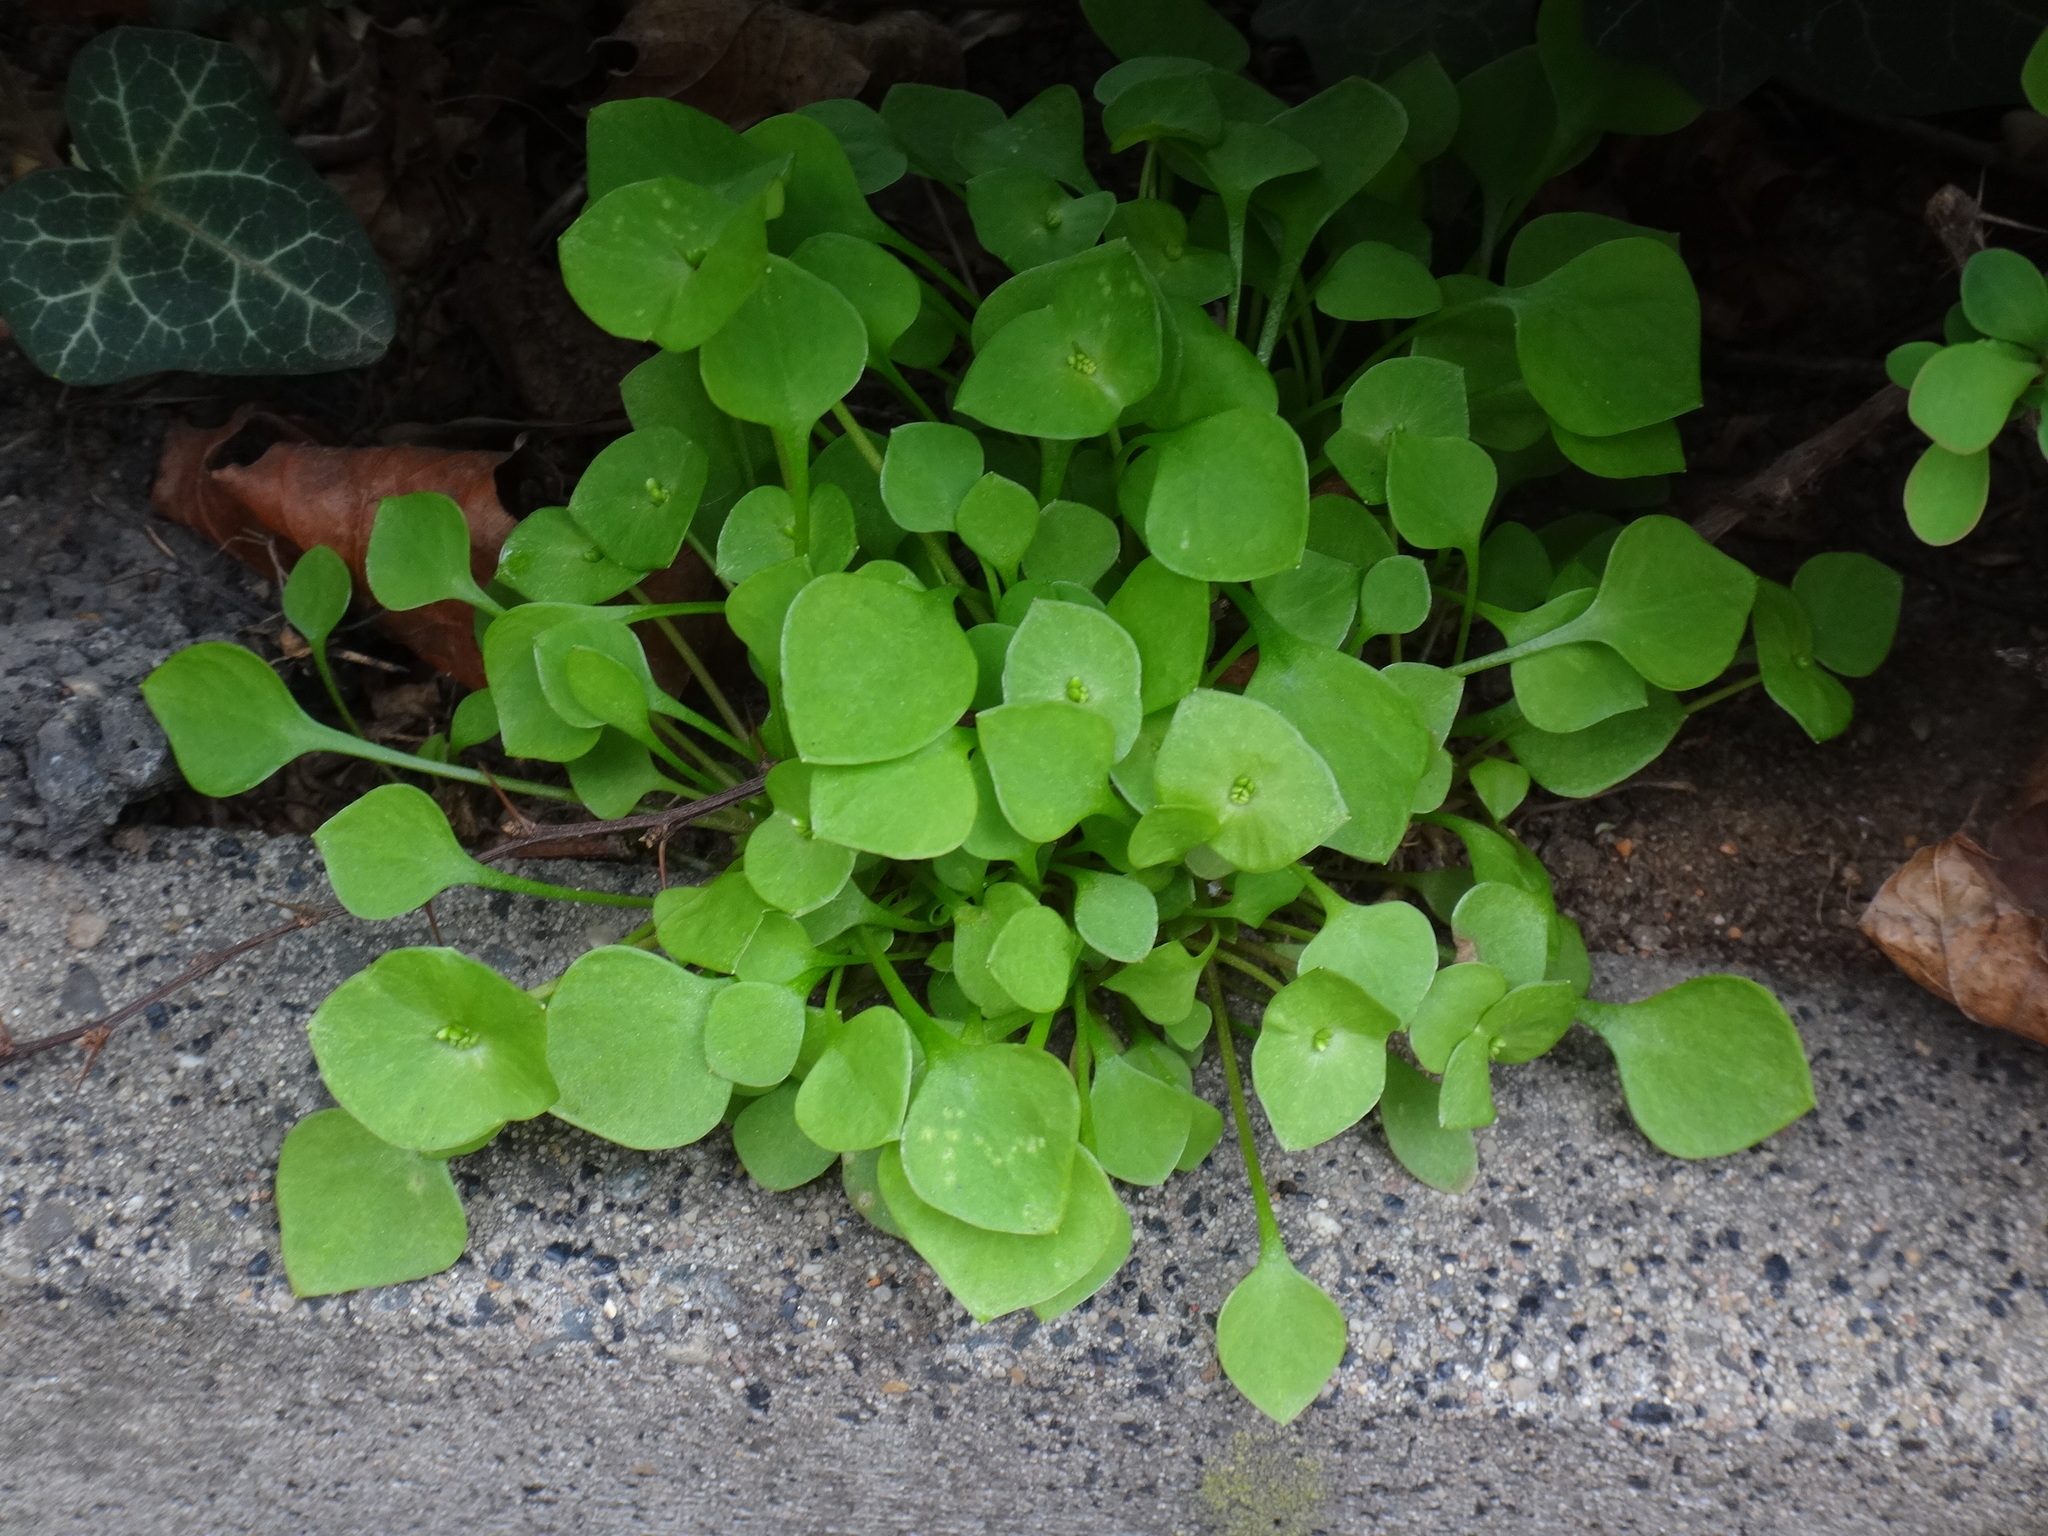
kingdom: Plantae
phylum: Tracheophyta
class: Magnoliopsida
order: Caryophyllales
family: Montiaceae
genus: Claytonia
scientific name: Claytonia perfoliata
